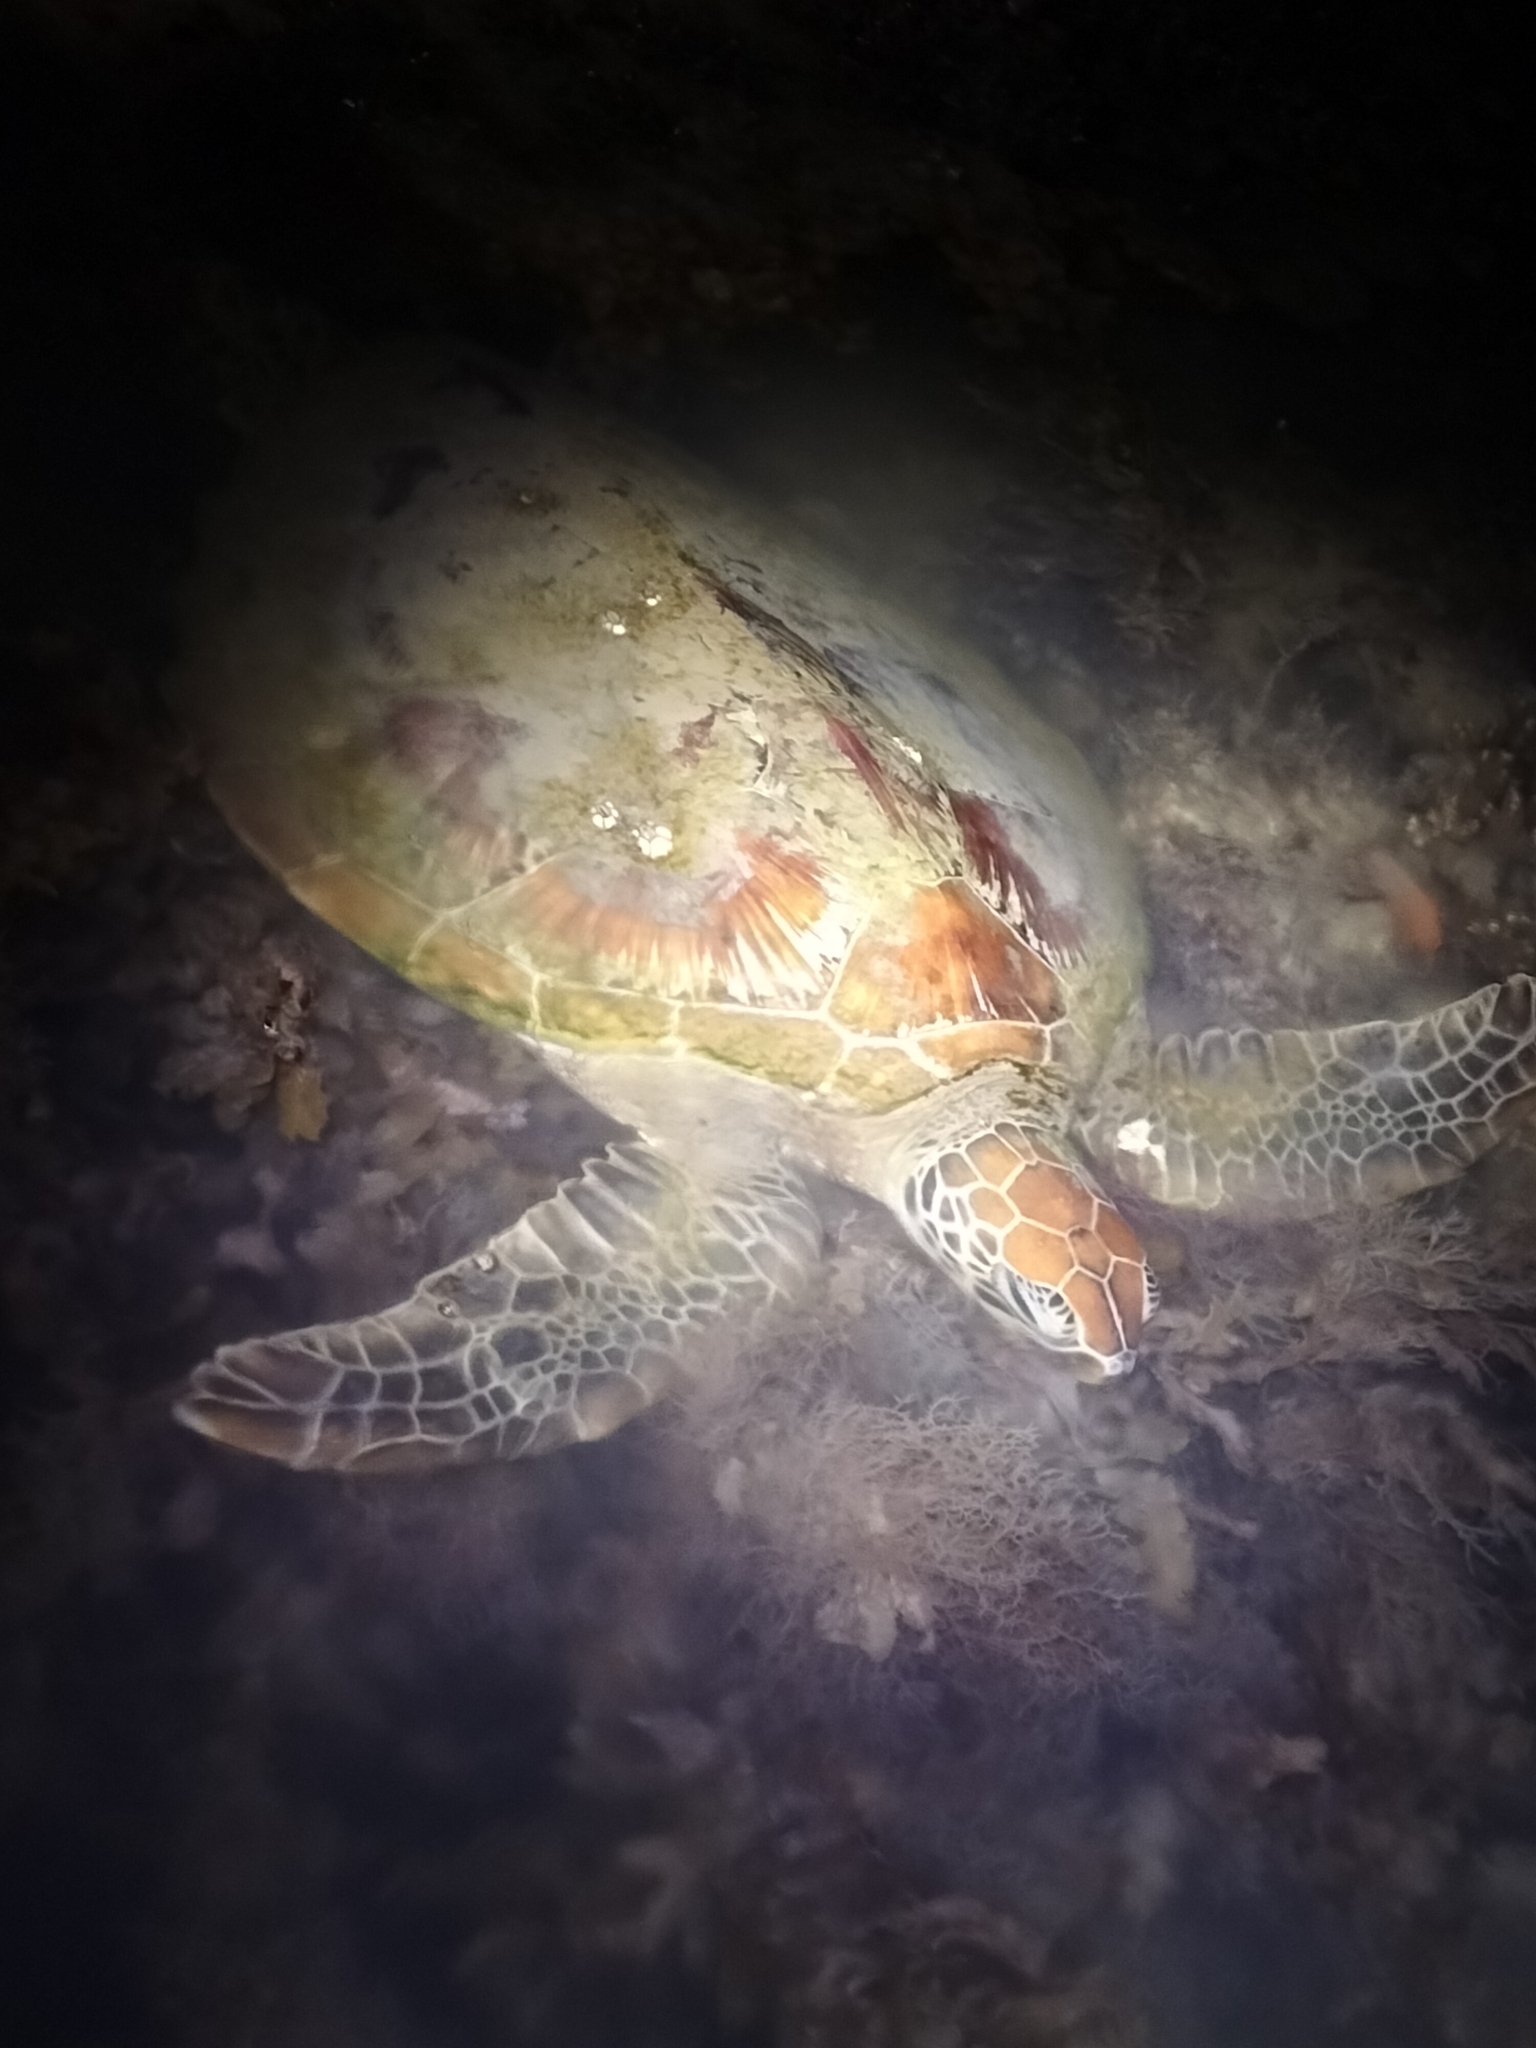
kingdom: Animalia
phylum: Chordata
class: Testudines
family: Cheloniidae
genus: Chelonia
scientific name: Chelonia mydas
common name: Green turtle
